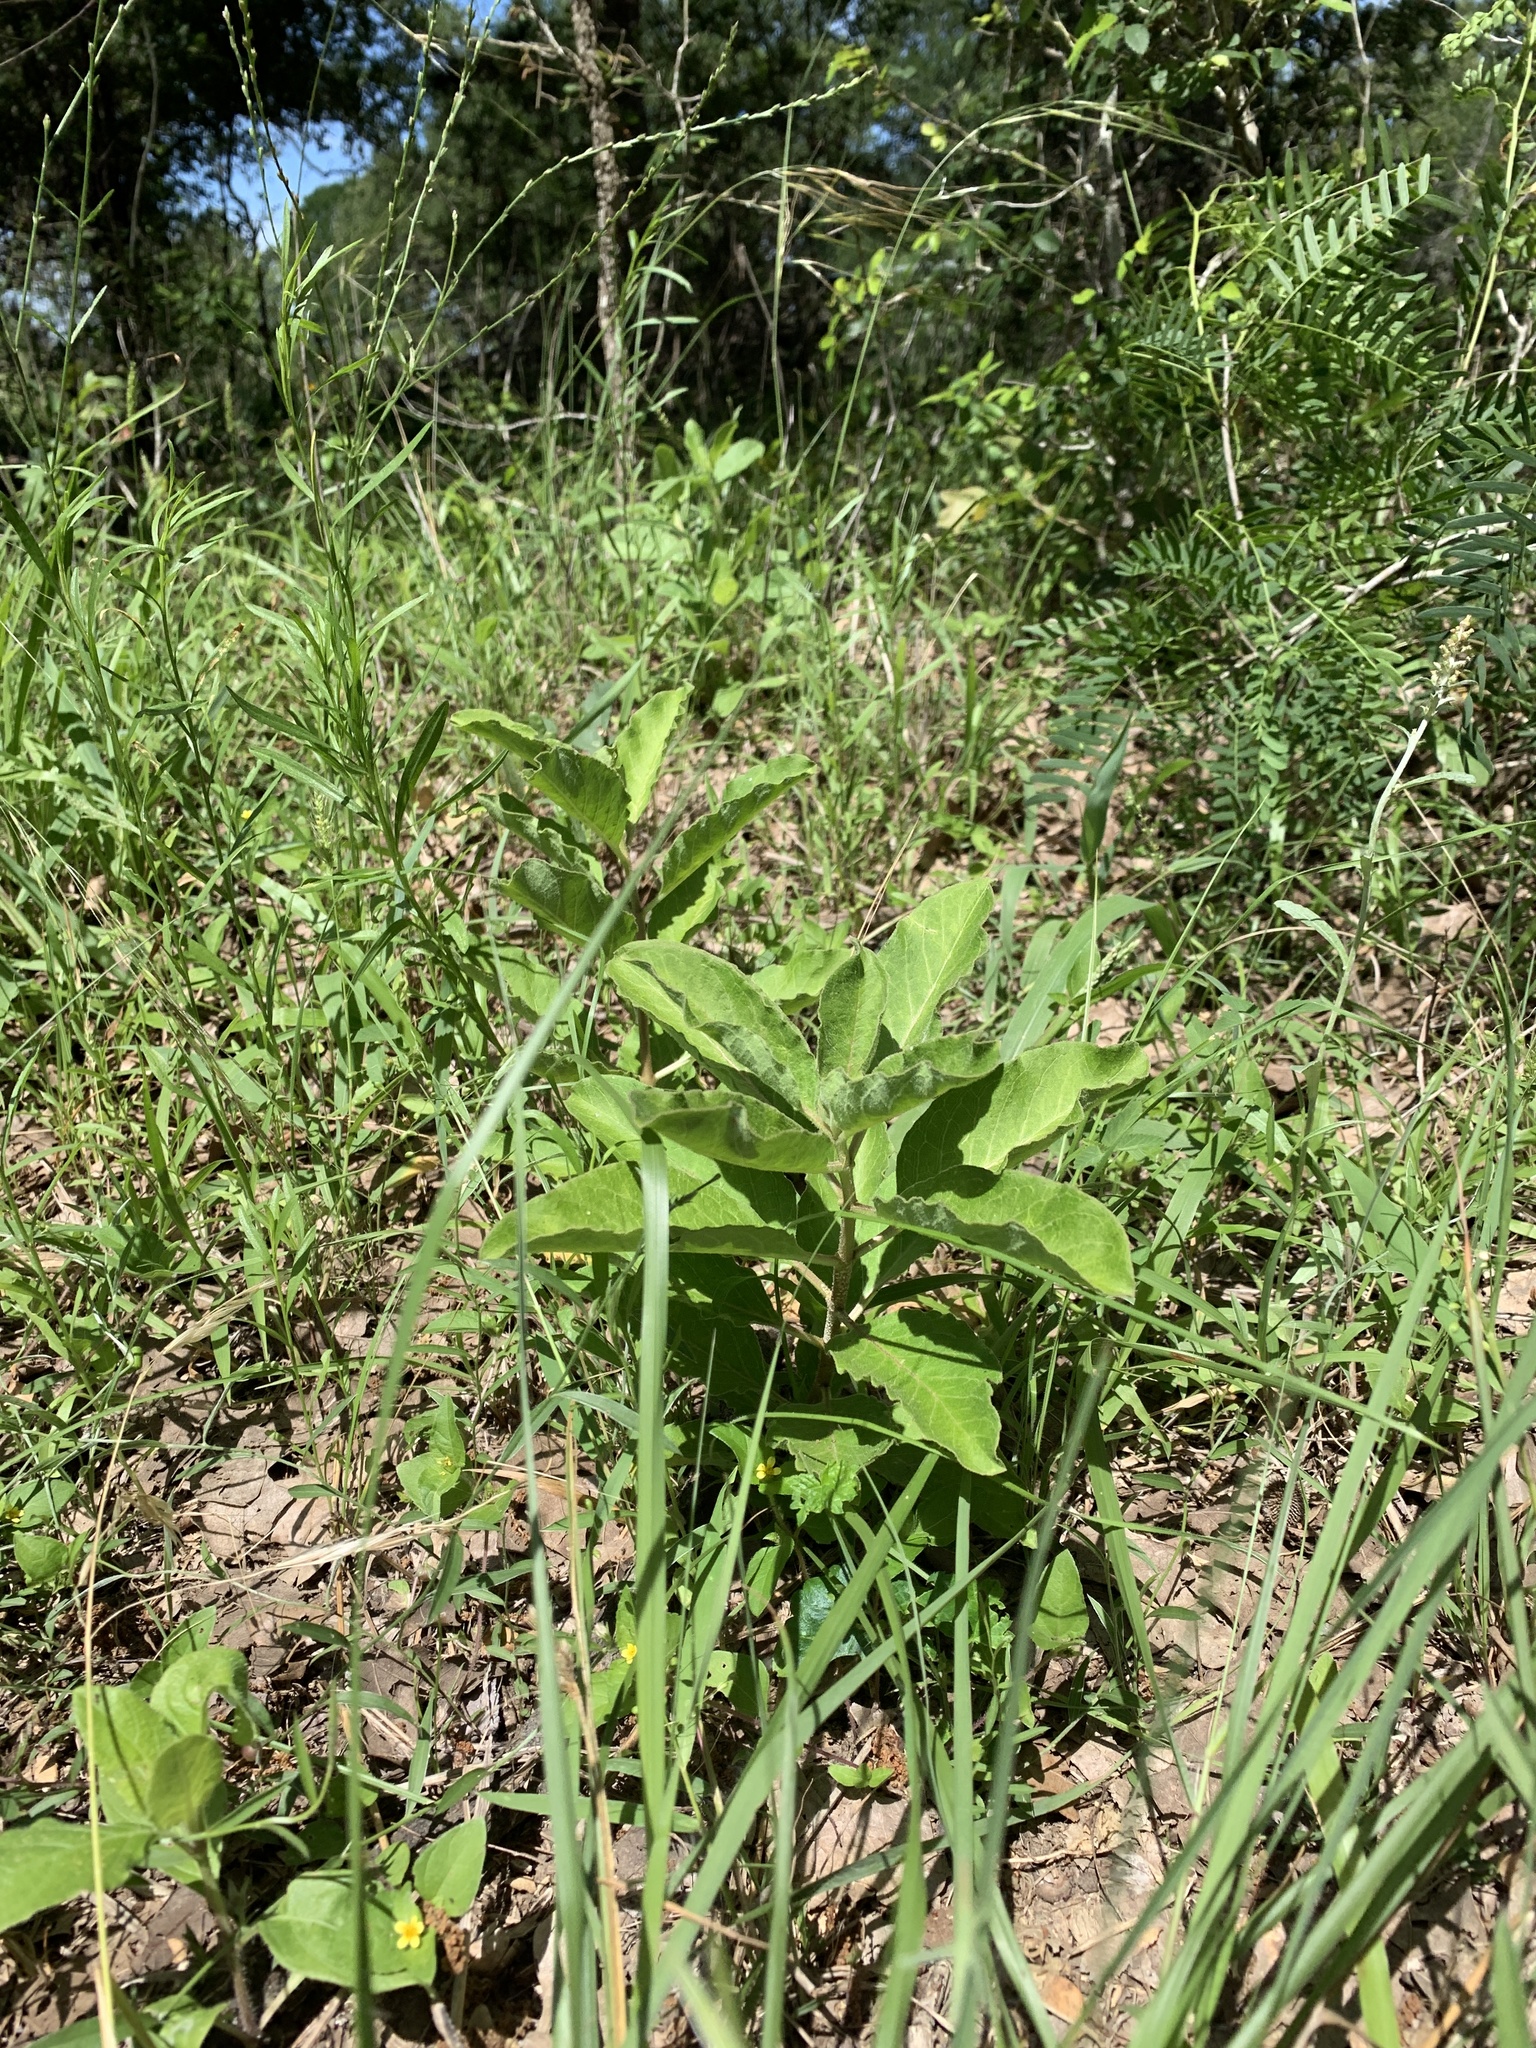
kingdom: Plantae
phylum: Tracheophyta
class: Magnoliopsida
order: Gentianales
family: Apocynaceae
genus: Asclepias
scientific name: Asclepias oenotheroides
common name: Zizotes milkweed
